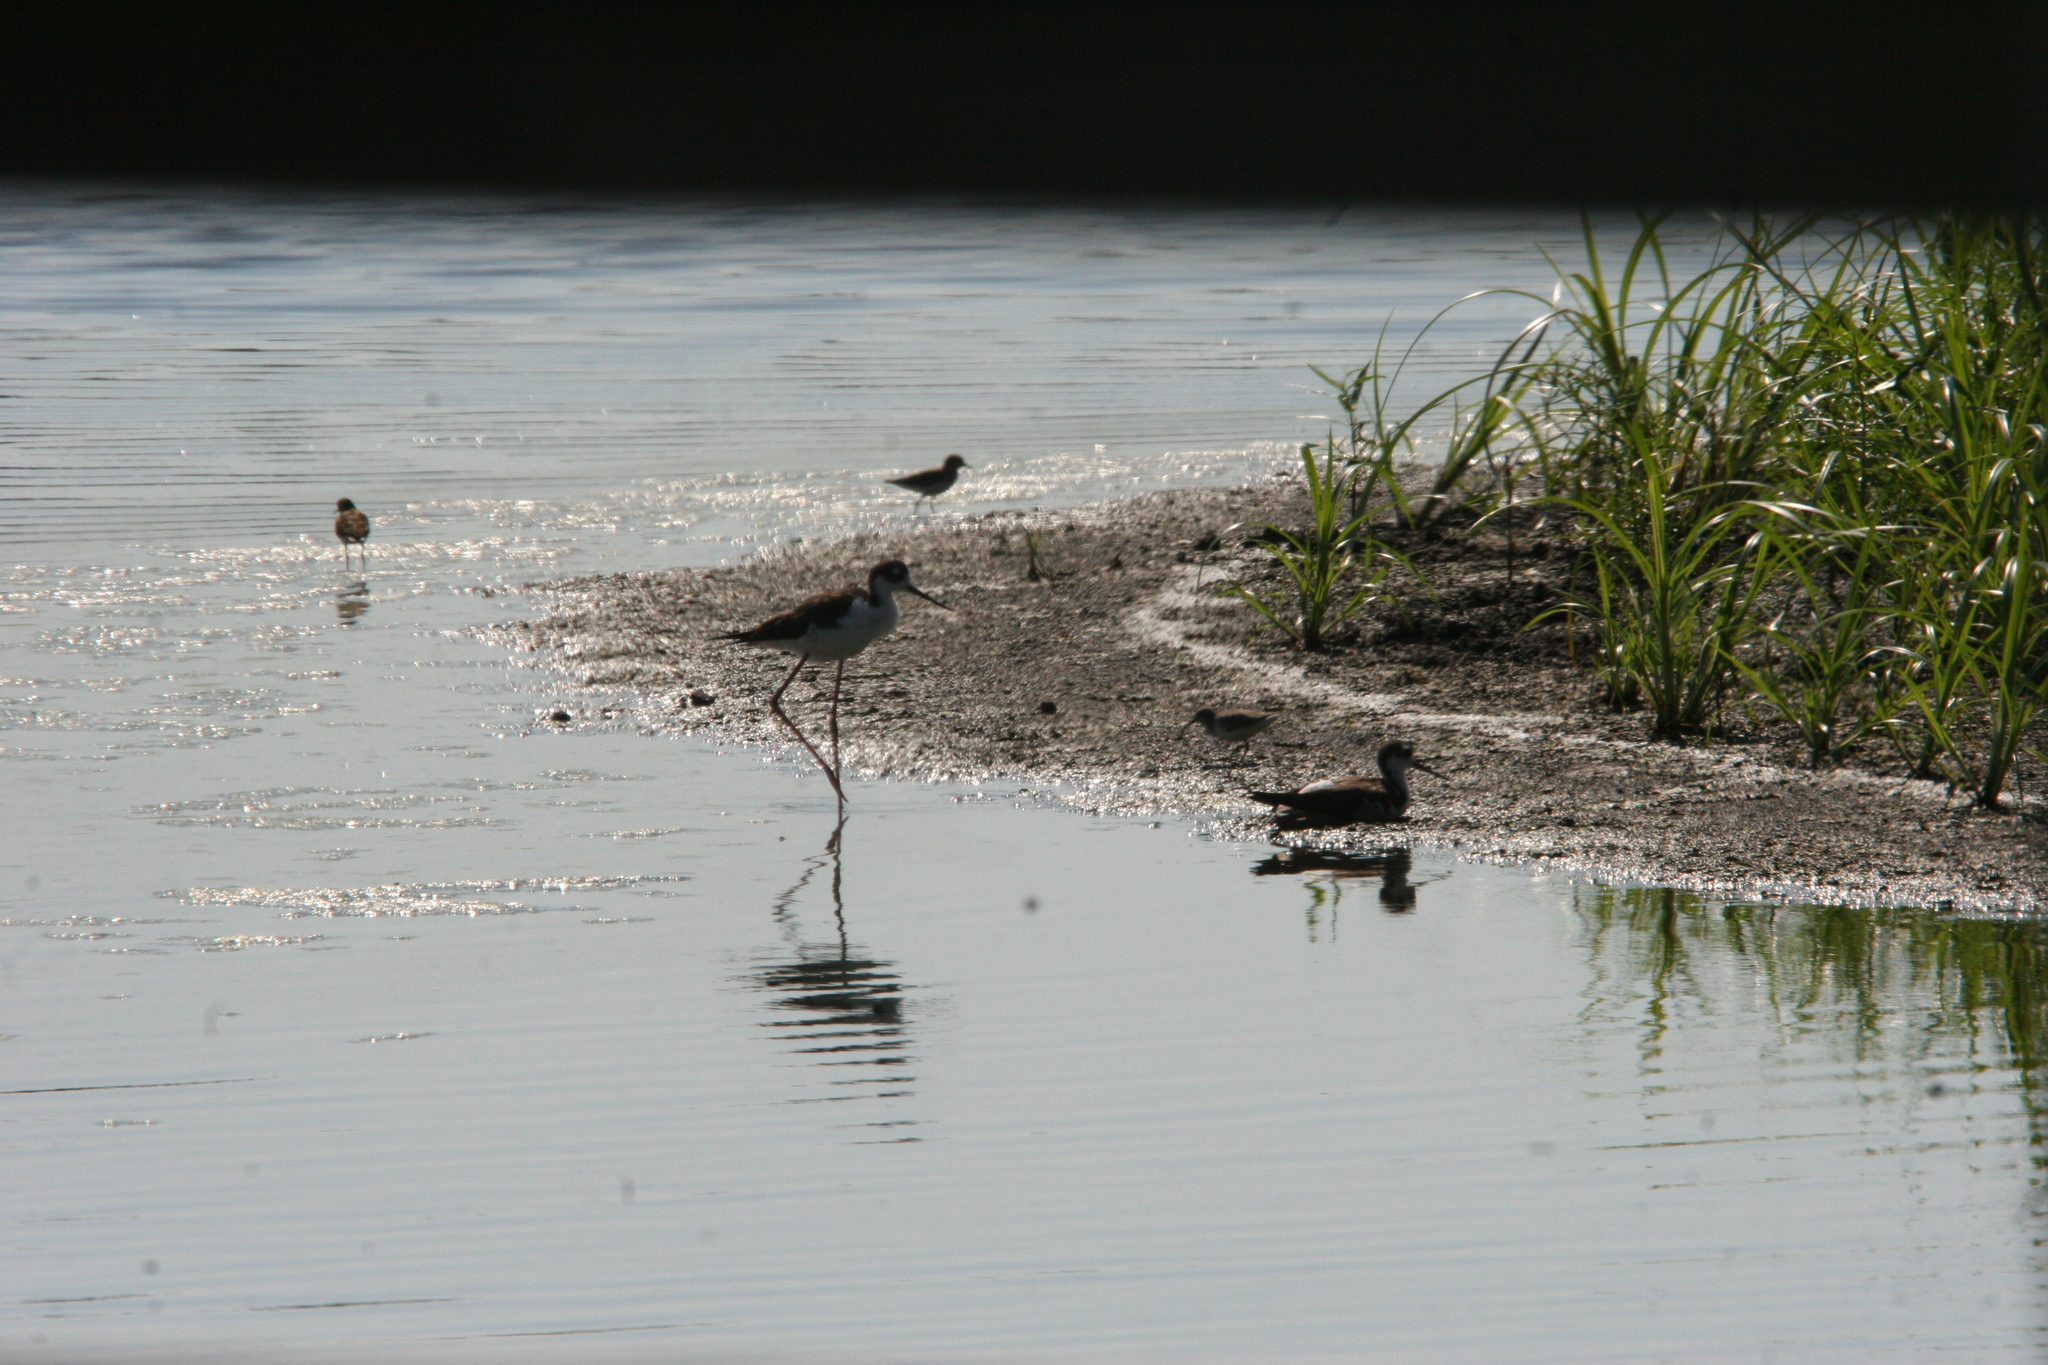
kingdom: Animalia
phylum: Chordata
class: Aves
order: Charadriiformes
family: Recurvirostridae
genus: Himantopus
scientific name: Himantopus mexicanus
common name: Black-necked stilt
